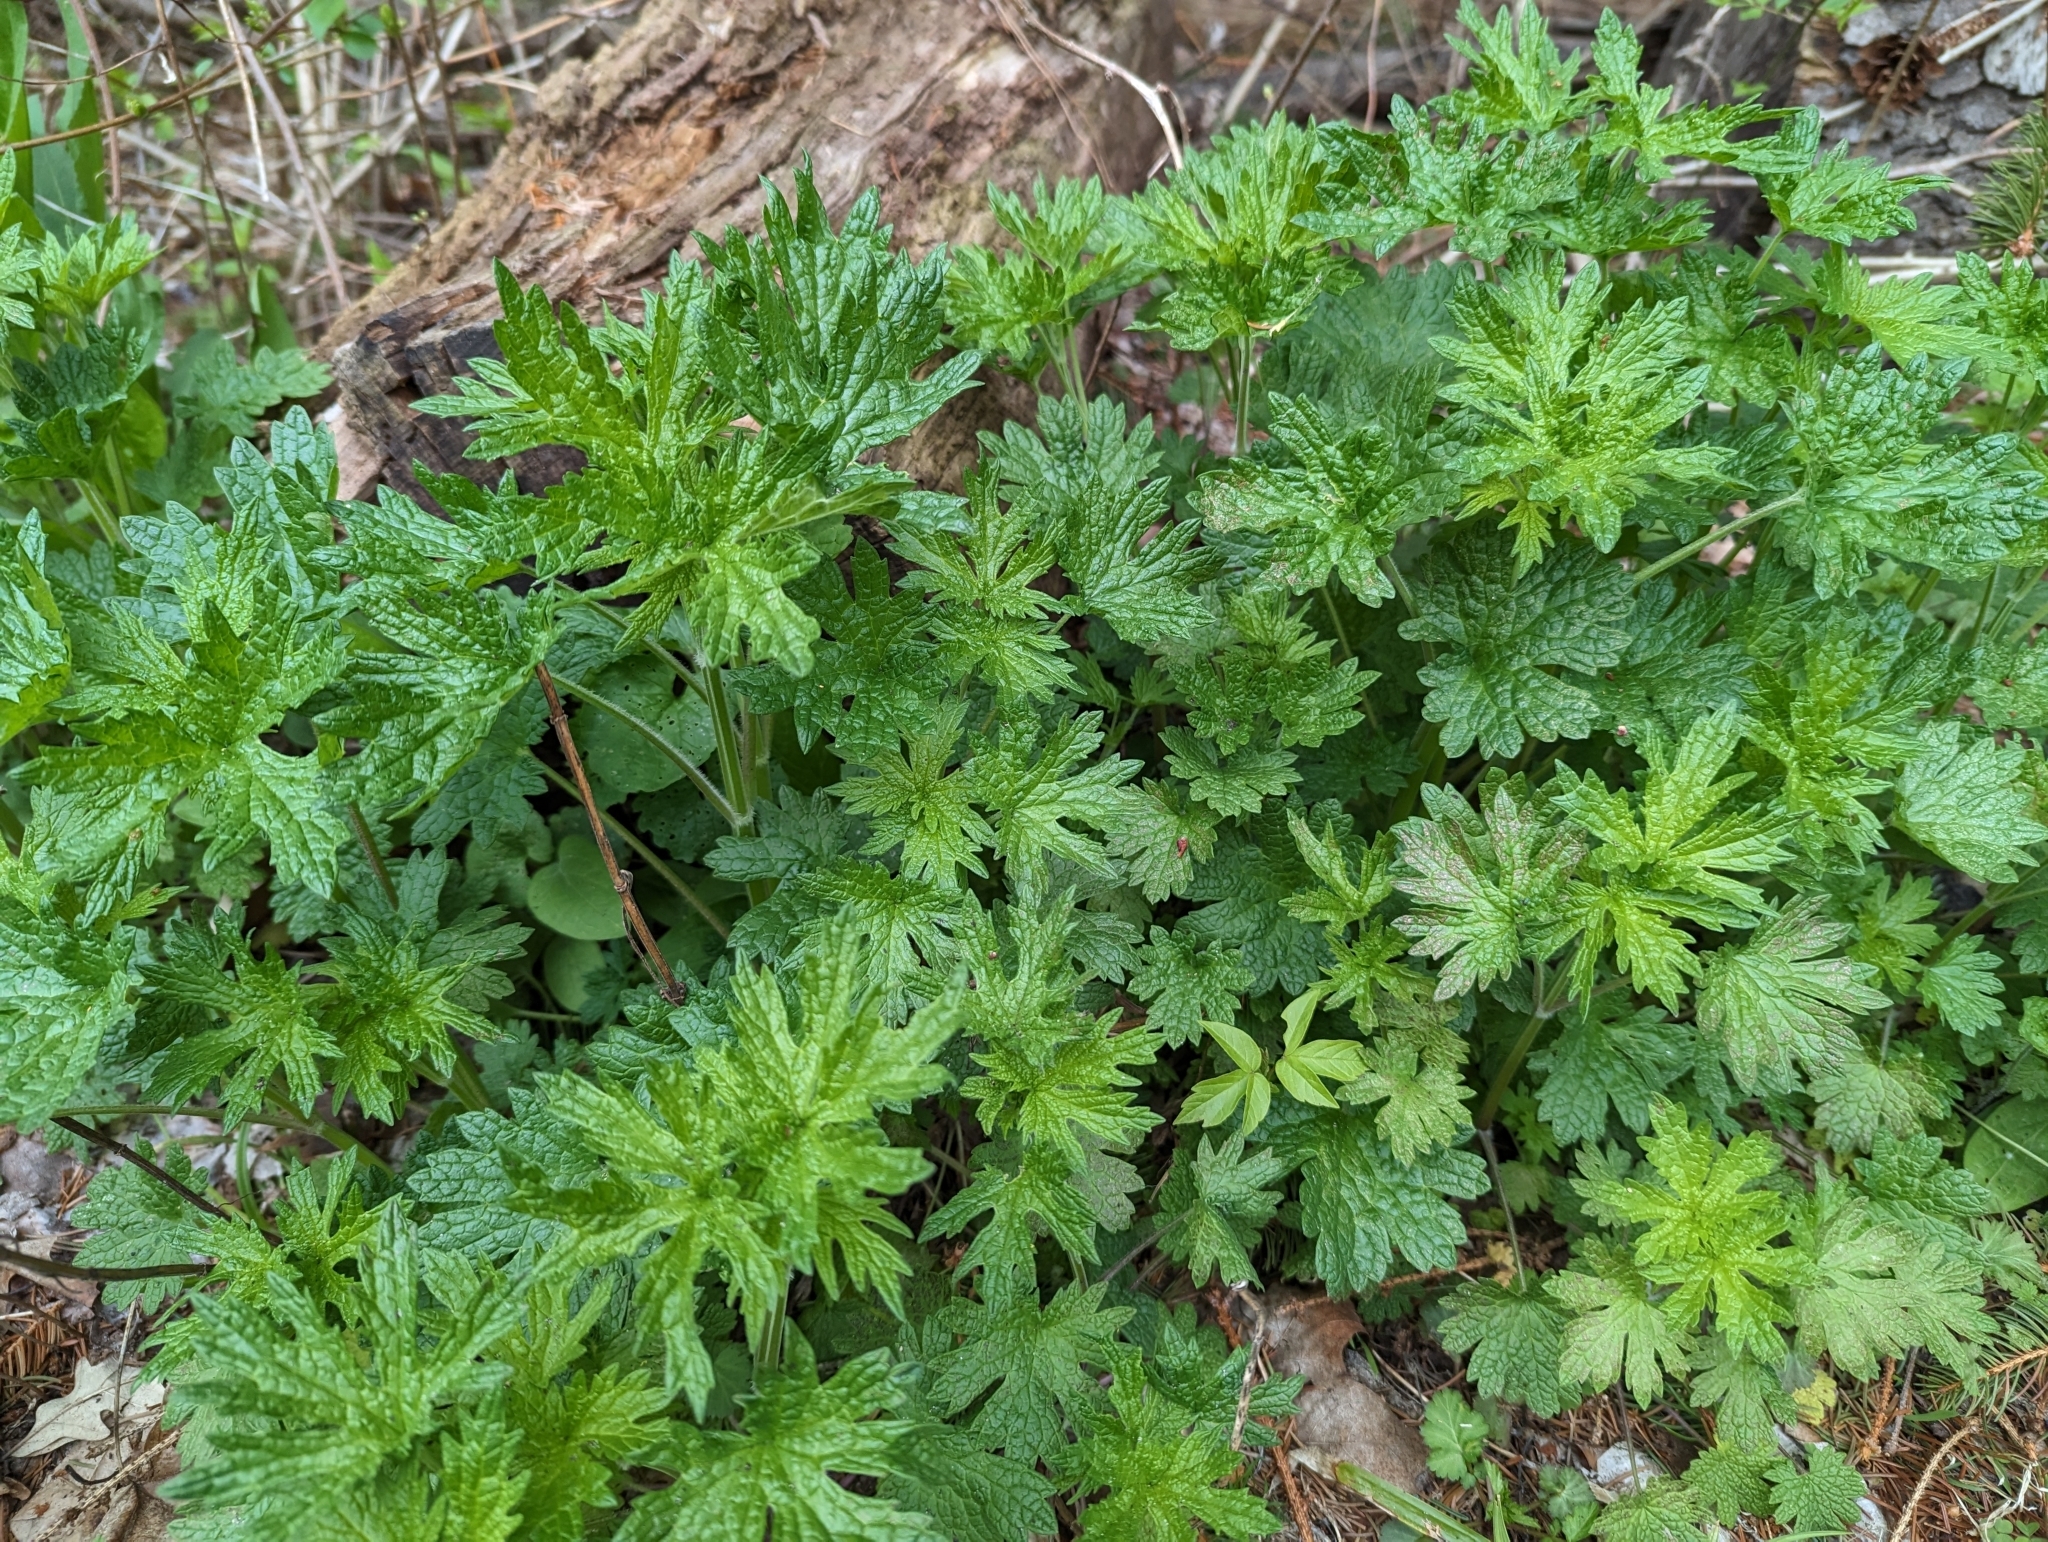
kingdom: Plantae
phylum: Tracheophyta
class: Magnoliopsida
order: Lamiales
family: Lamiaceae
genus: Leonurus
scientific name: Leonurus cardiaca
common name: Motherwort
